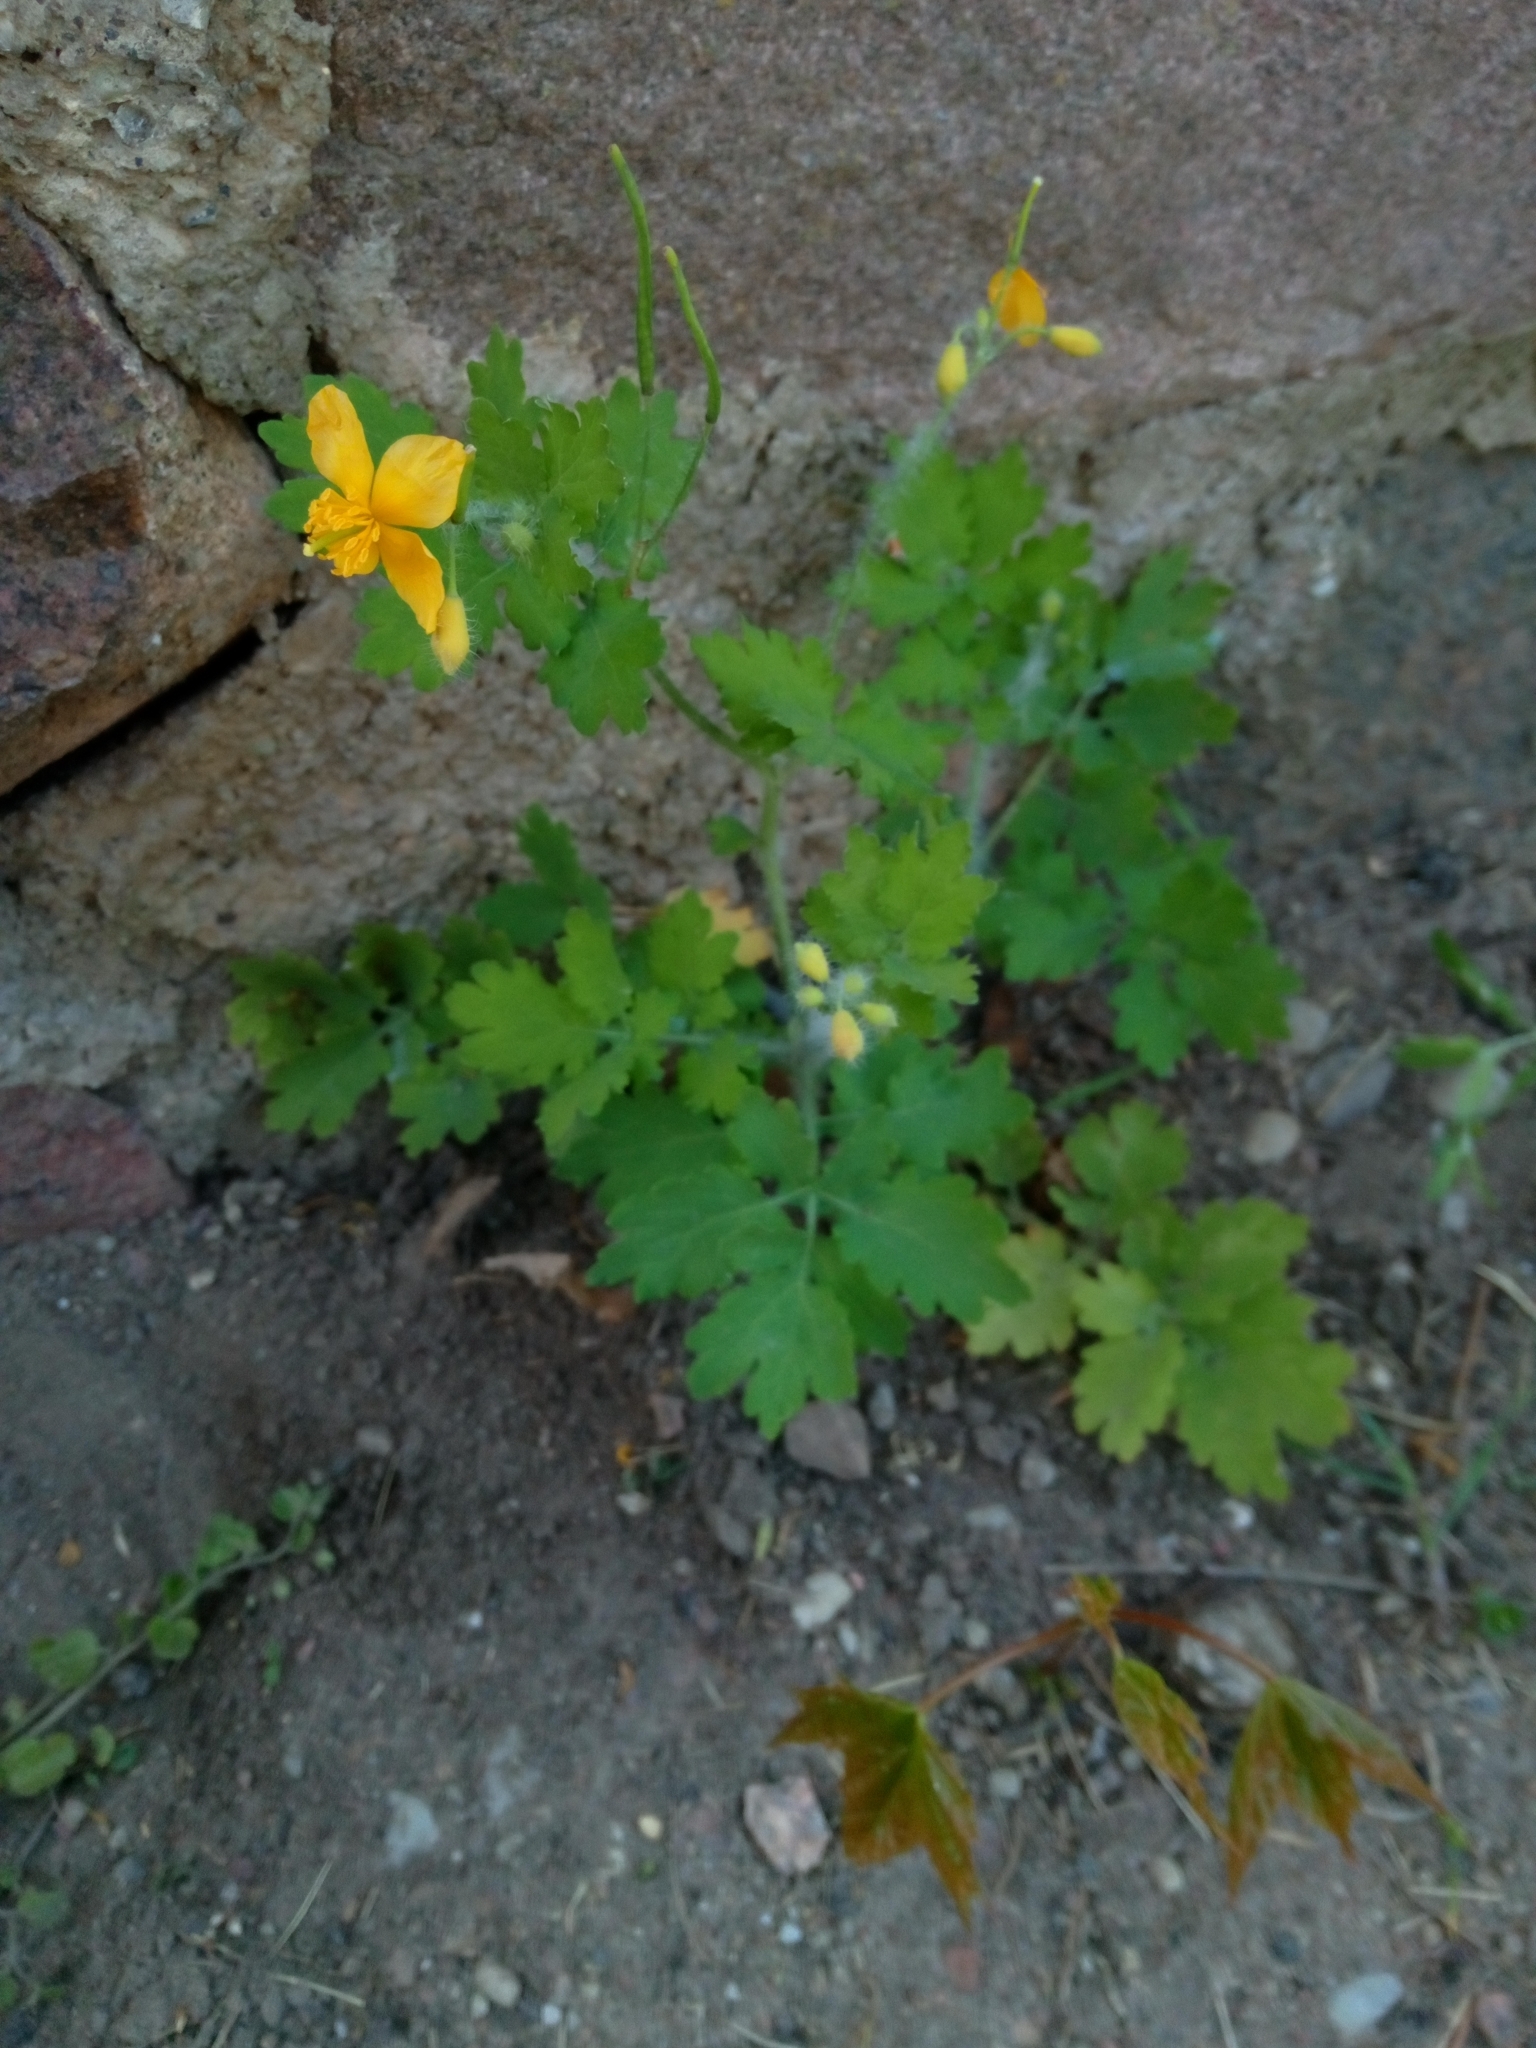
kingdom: Plantae
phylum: Tracheophyta
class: Magnoliopsida
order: Ranunculales
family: Papaveraceae
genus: Chelidonium
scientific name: Chelidonium majus
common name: Greater celandine
